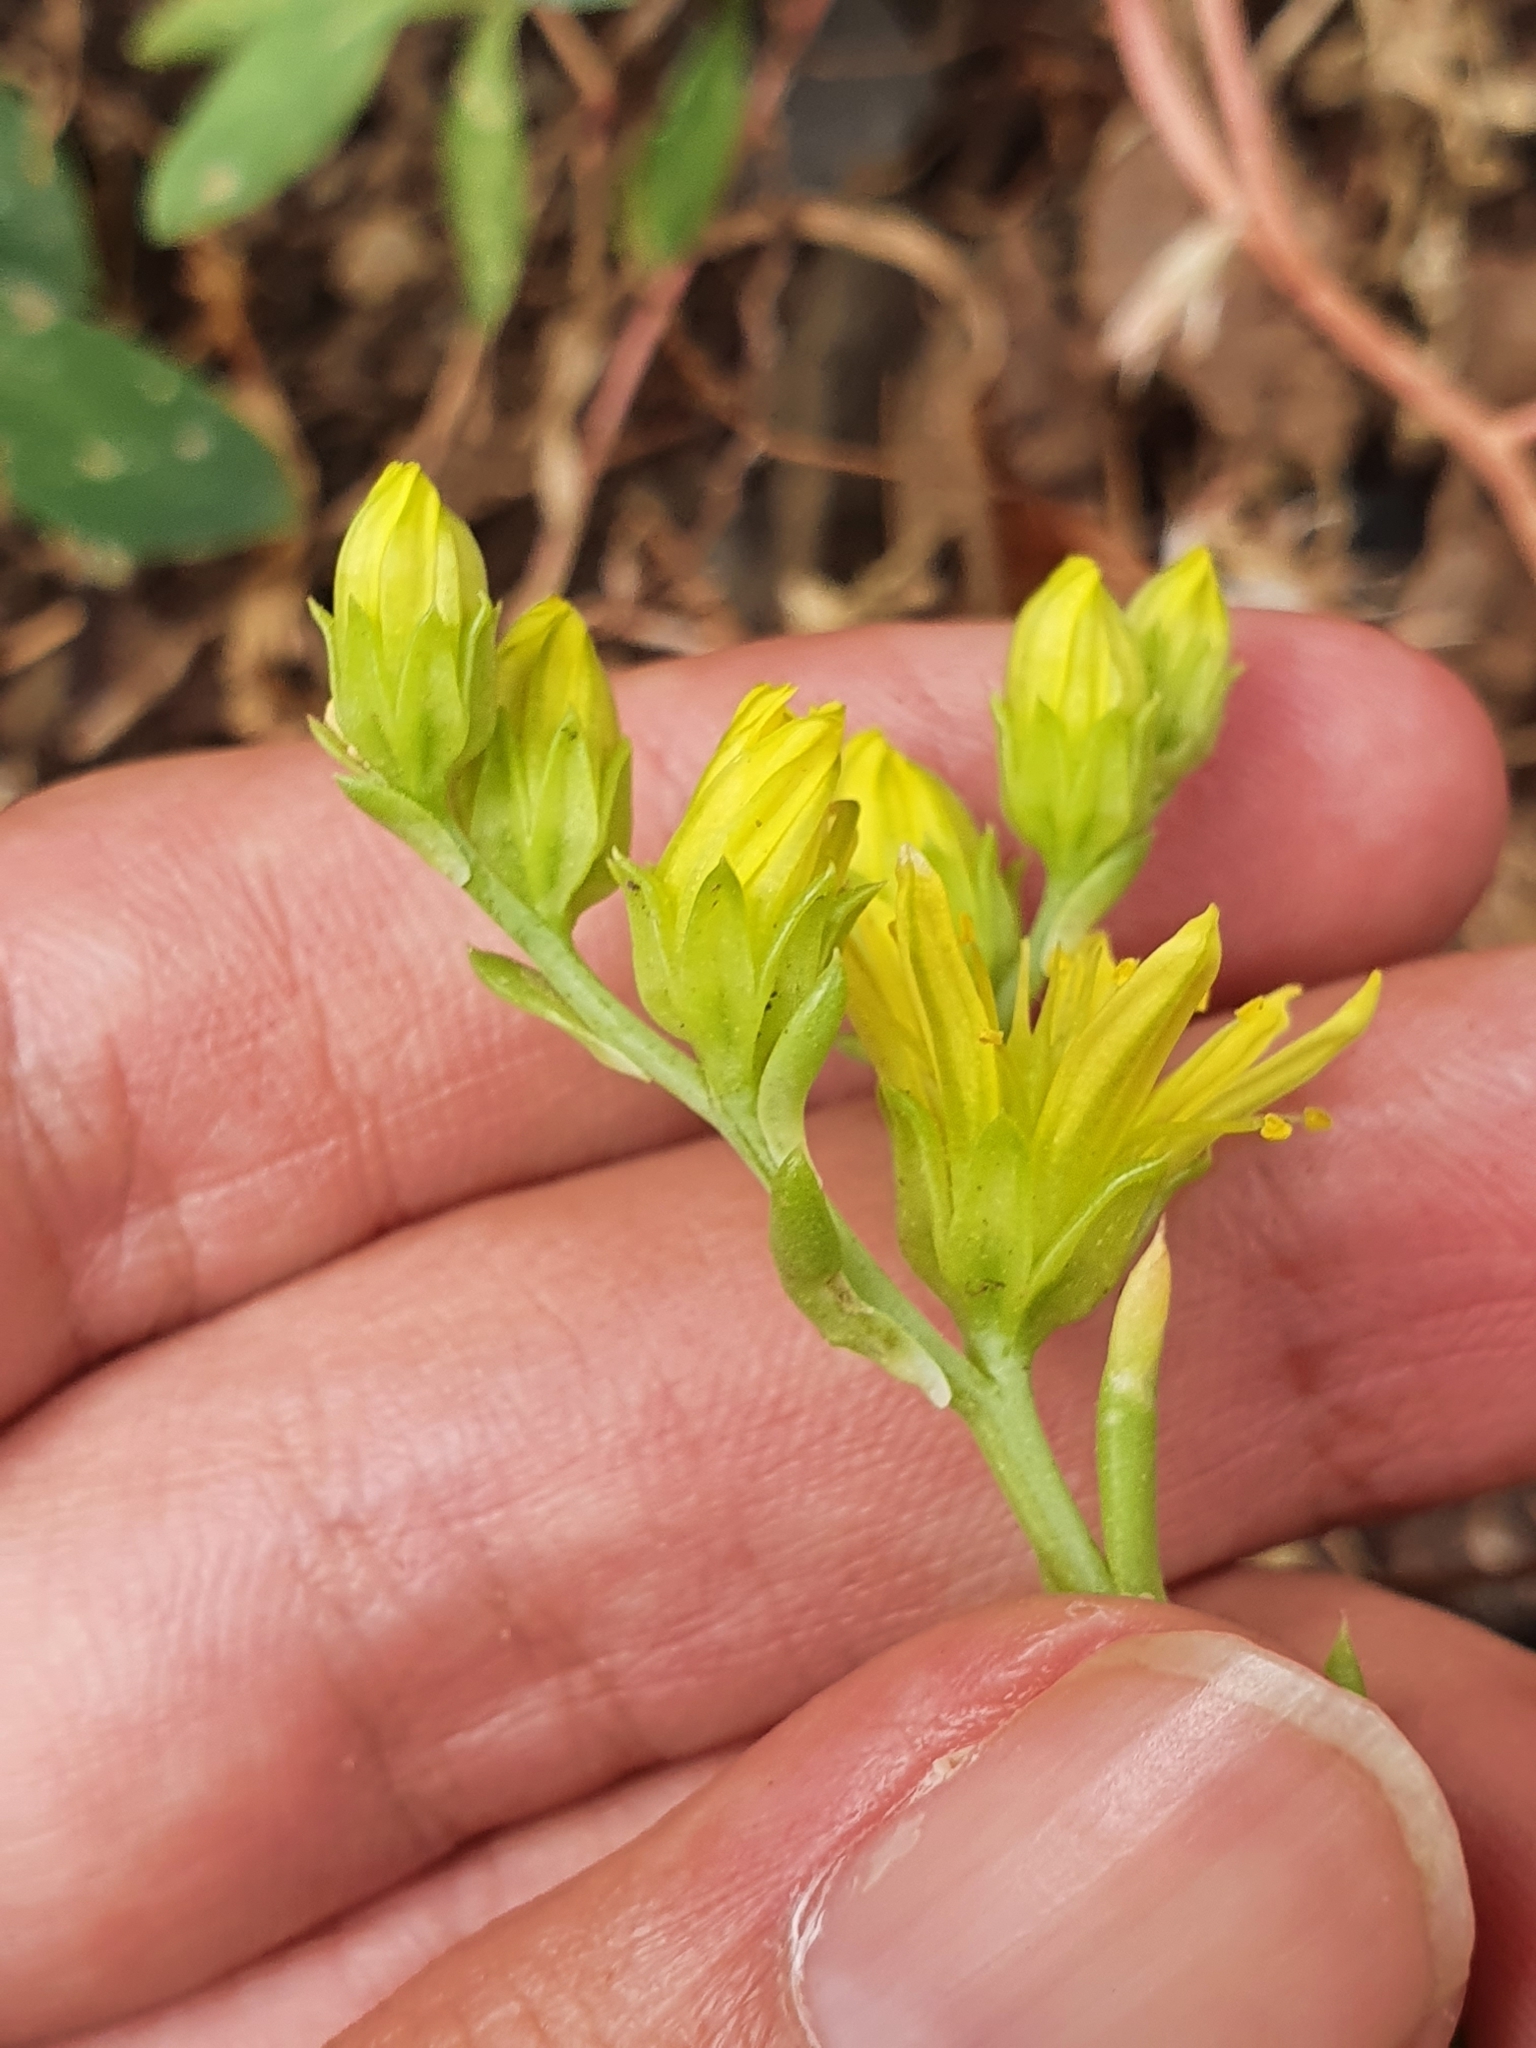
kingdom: Plantae
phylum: Tracheophyta
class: Magnoliopsida
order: Saxifragales
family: Crassulaceae
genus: Petrosedum
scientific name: Petrosedum amplexicaule
